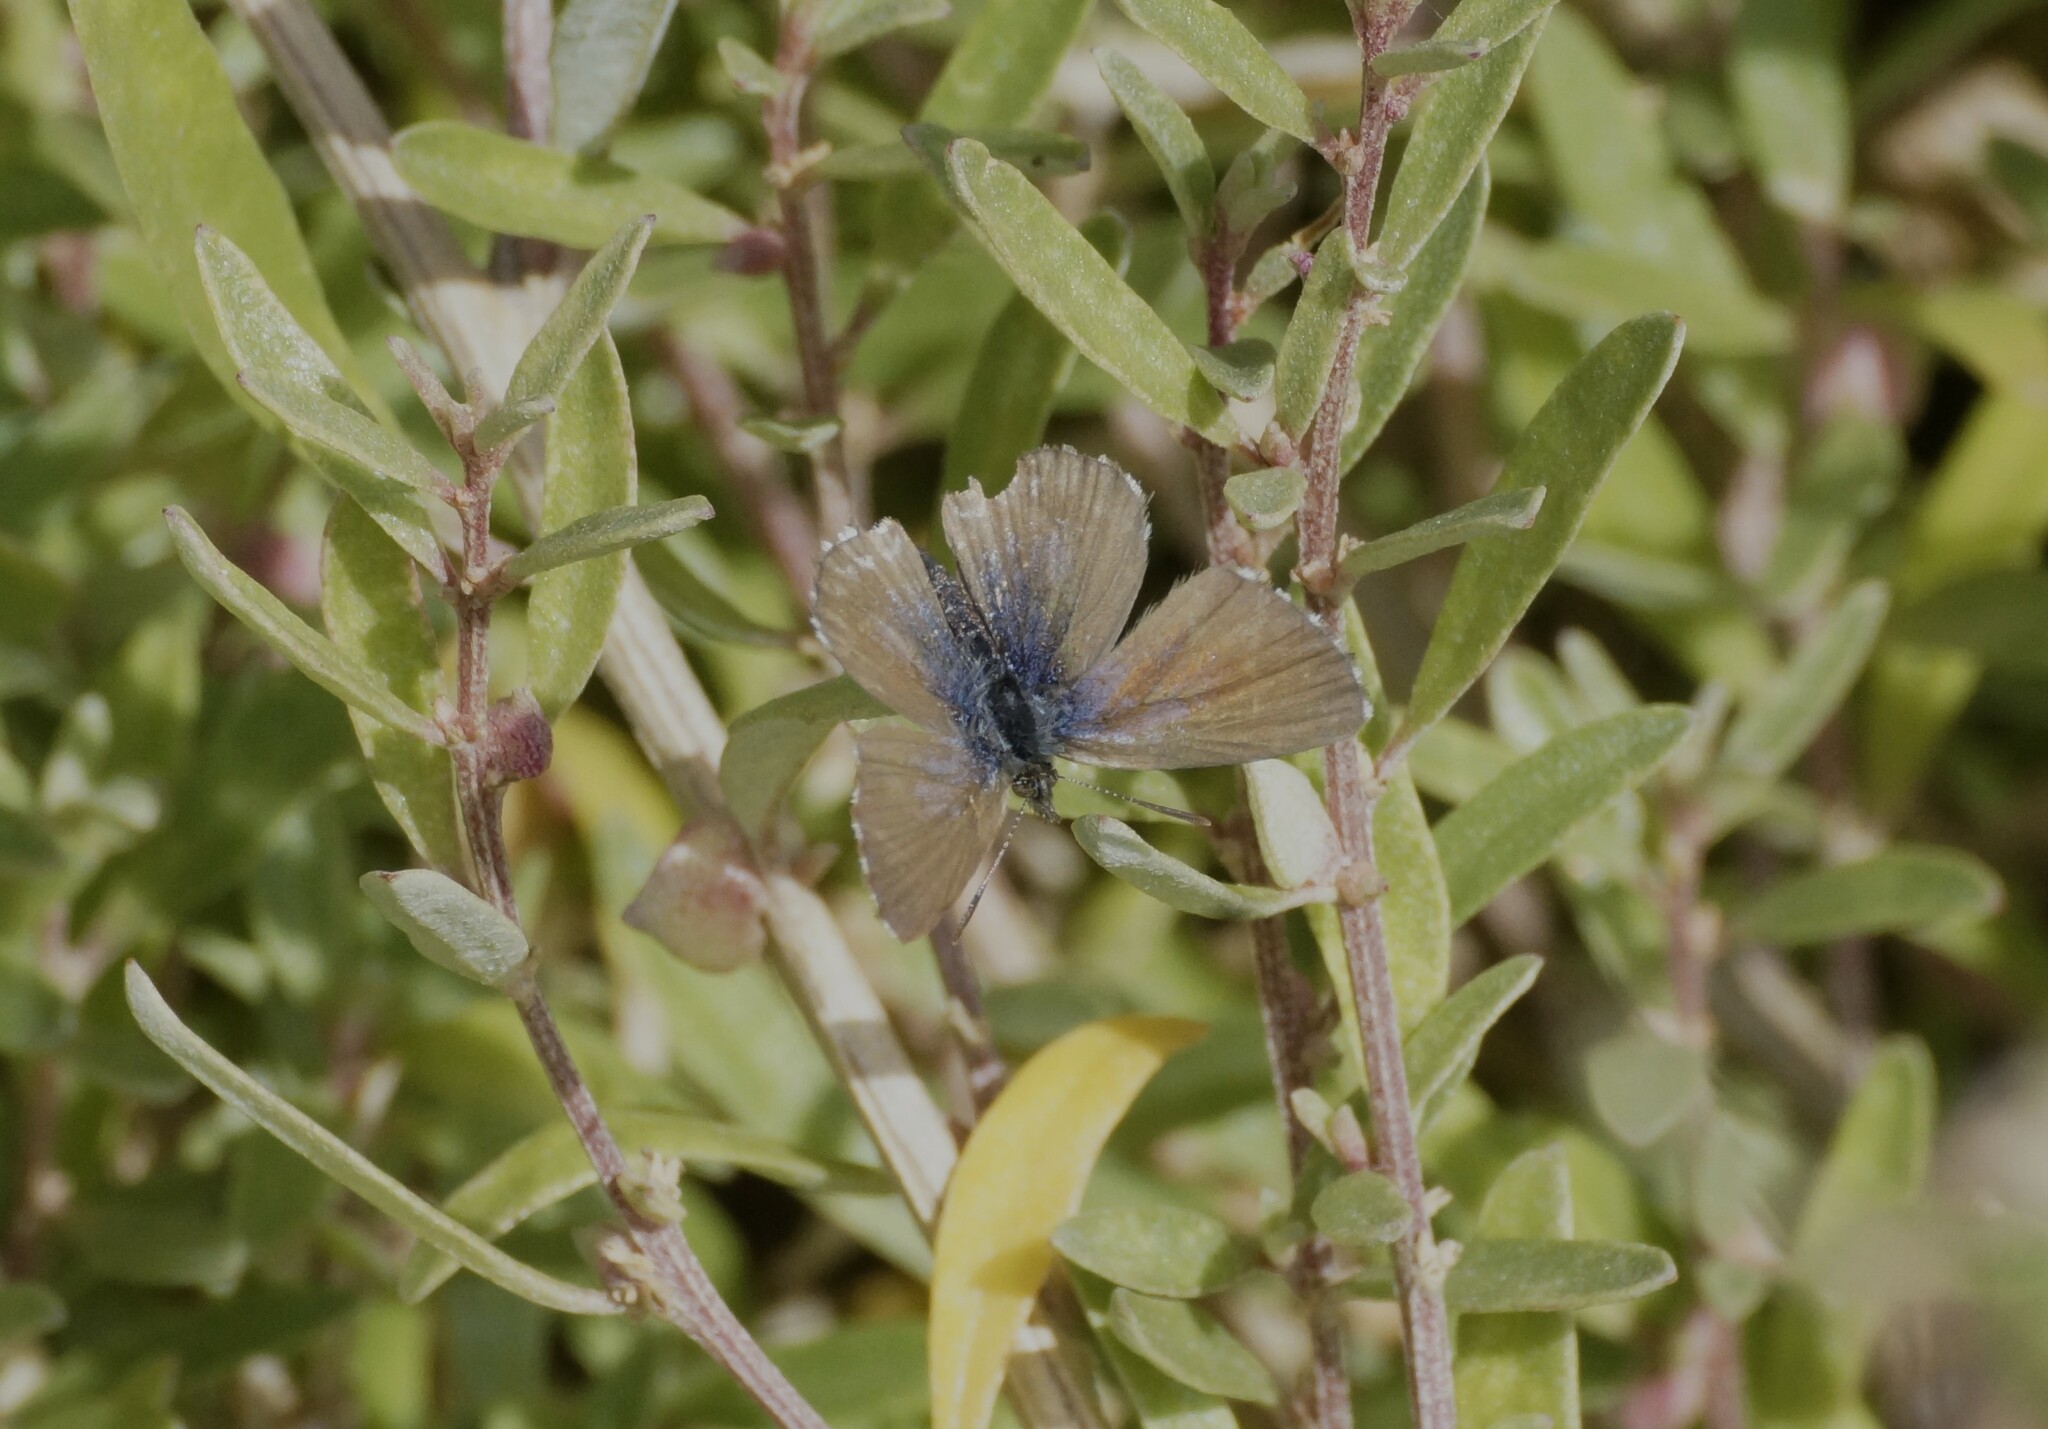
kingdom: Animalia
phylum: Arthropoda
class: Insecta
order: Lepidoptera
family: Lycaenidae
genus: Theclinesthes
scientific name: Theclinesthes serpentata
